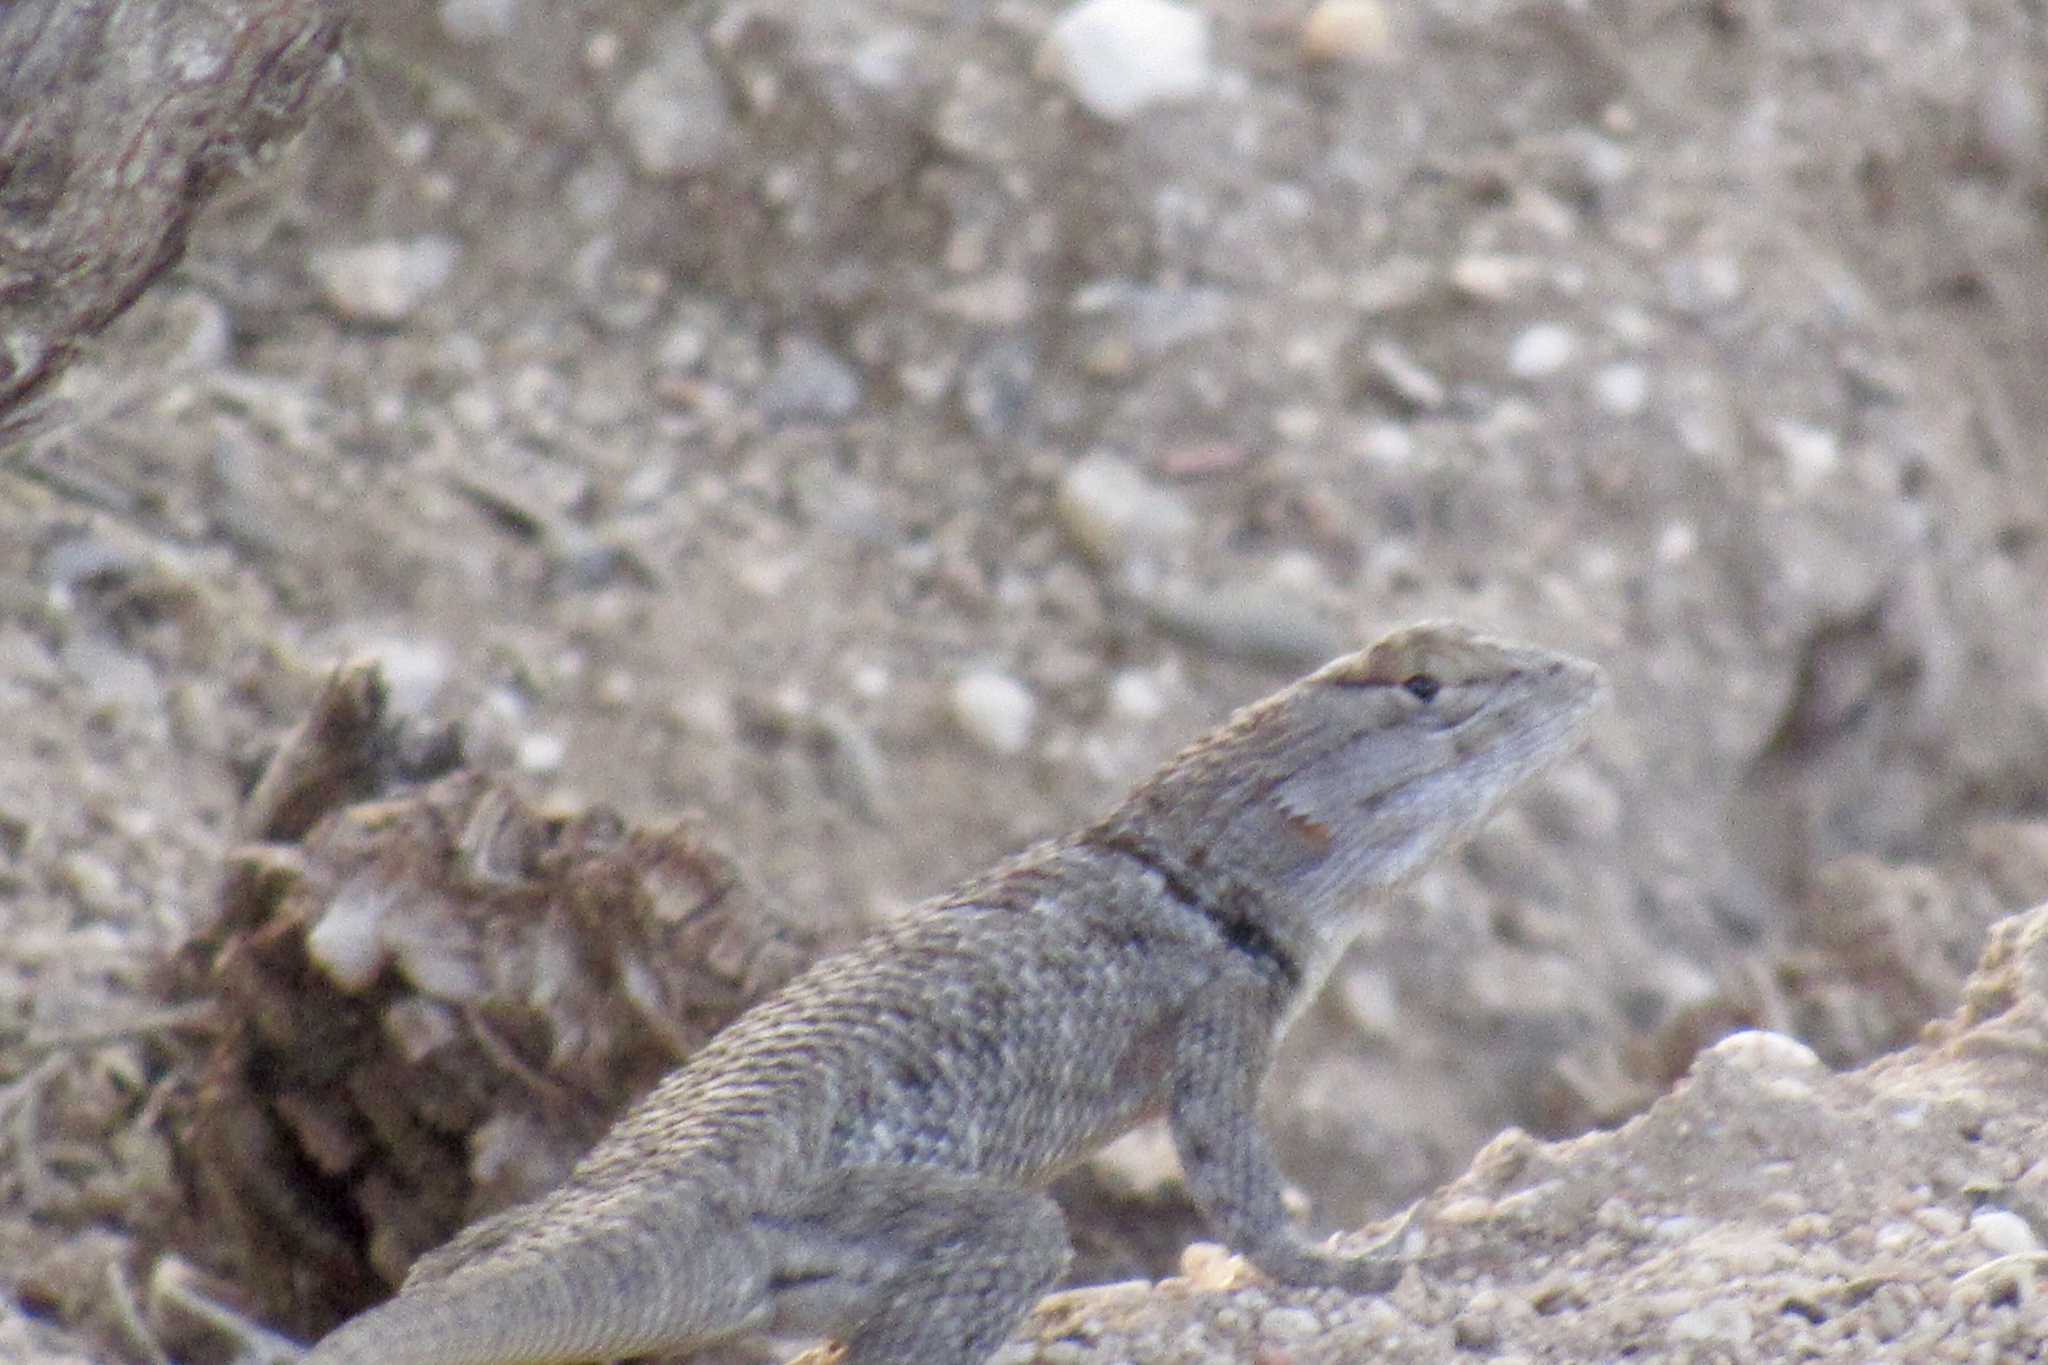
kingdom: Animalia
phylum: Chordata
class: Squamata
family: Phrynosomatidae
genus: Sceloporus
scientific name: Sceloporus magister
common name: Desert spiny lizard
